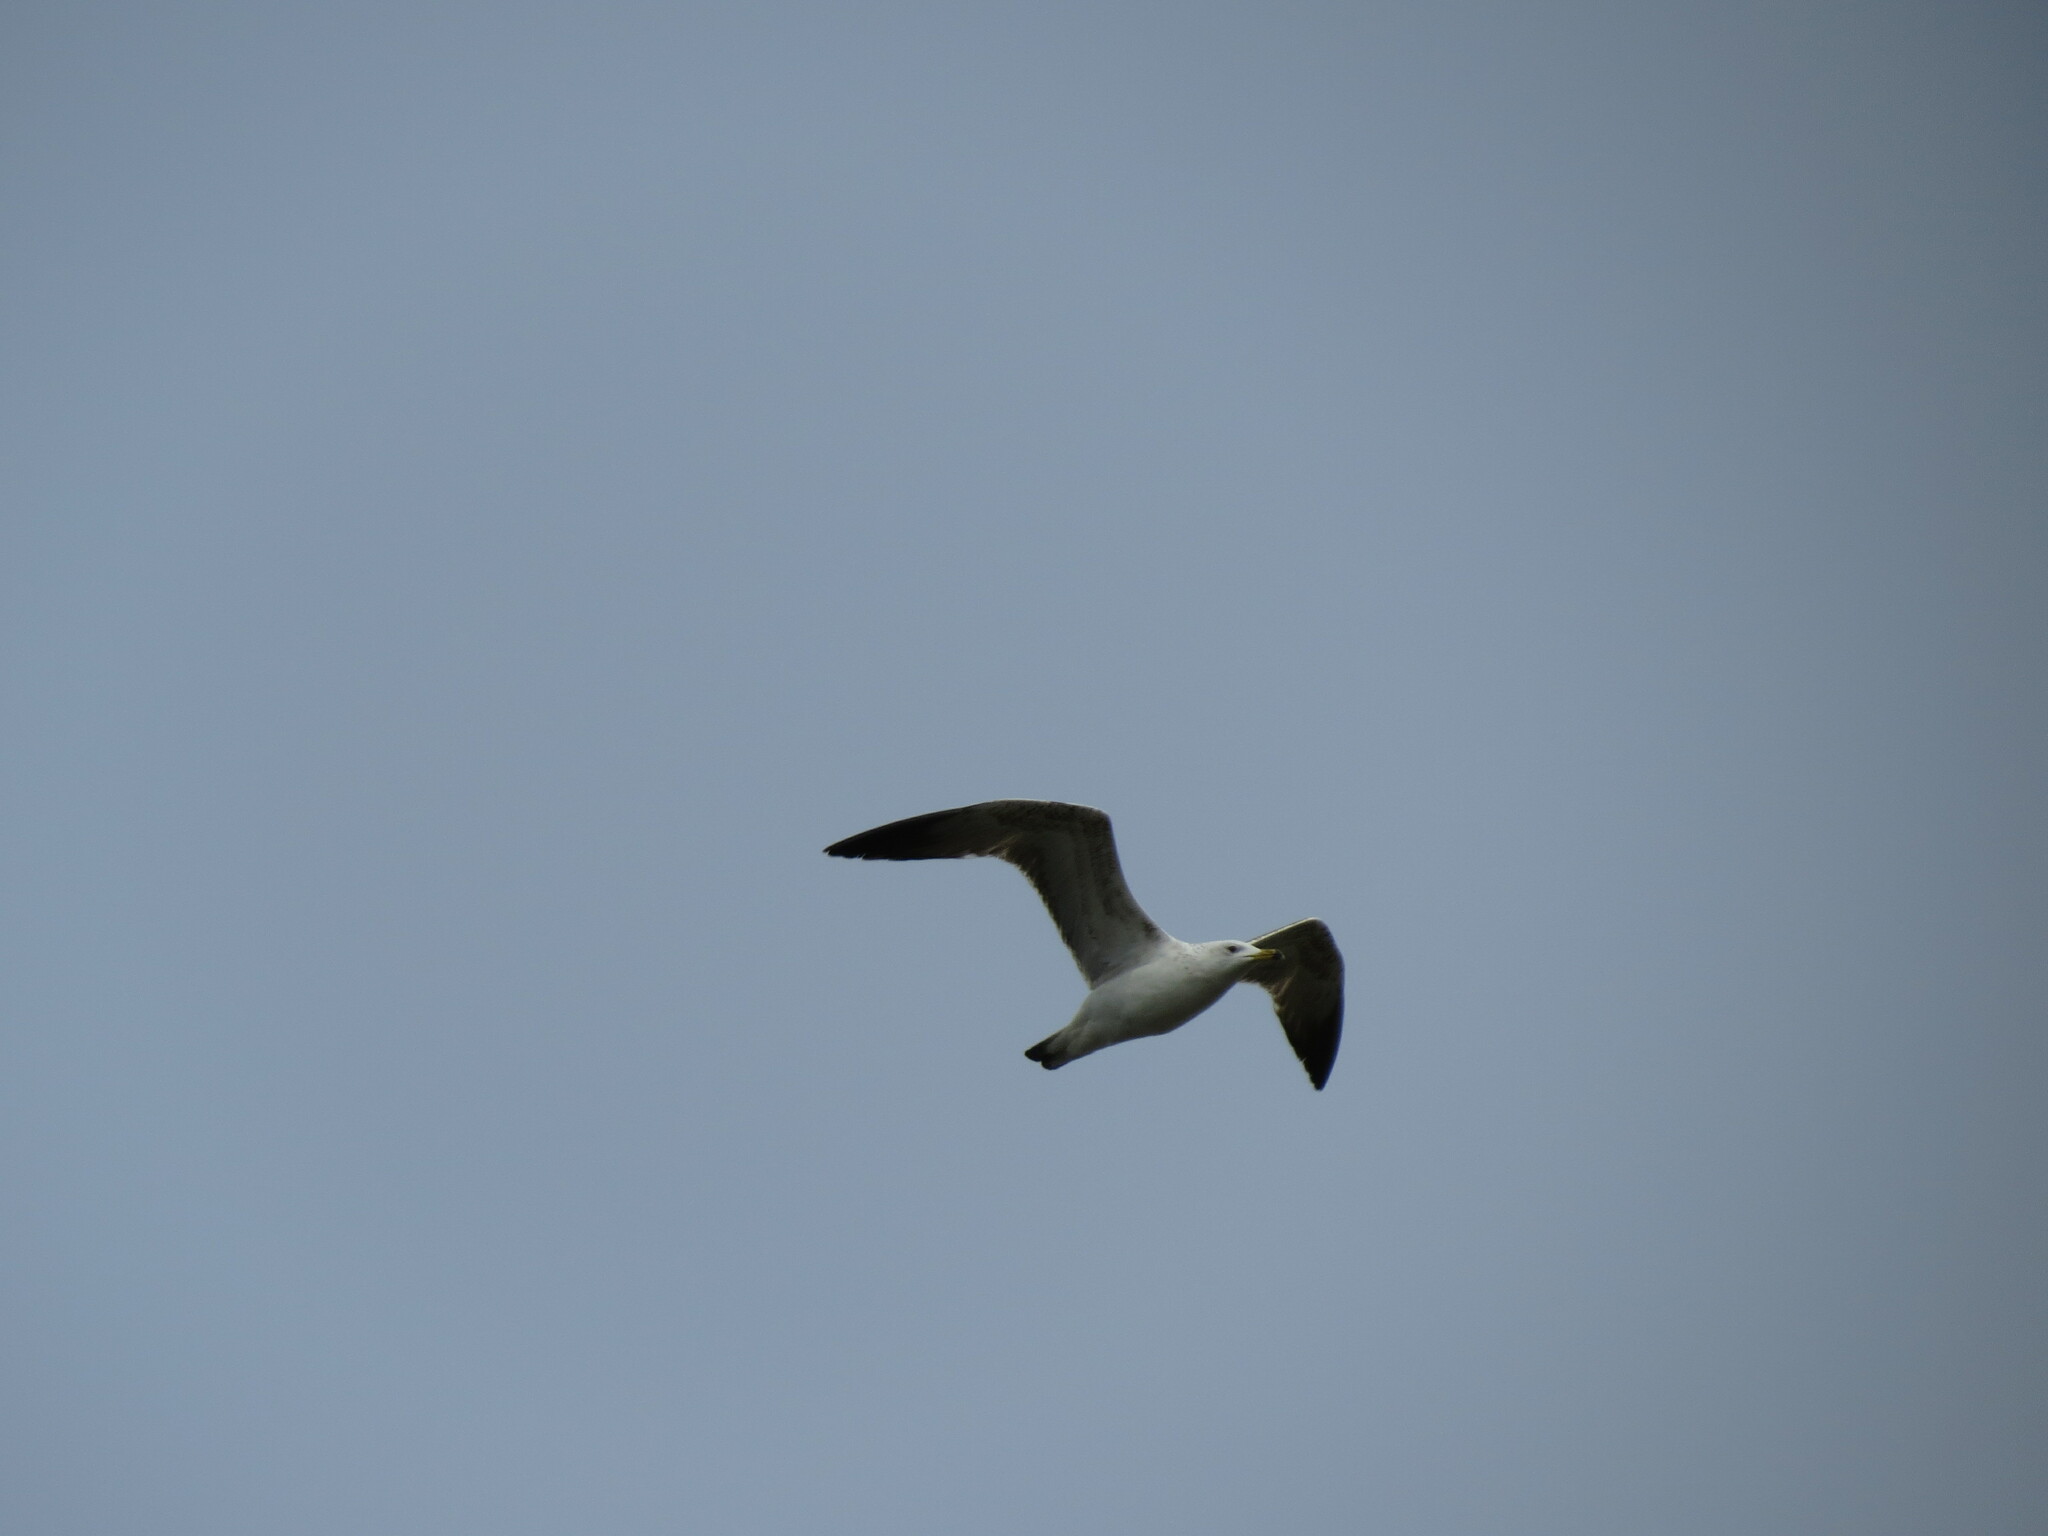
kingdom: Animalia
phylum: Chordata
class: Aves
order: Charadriiformes
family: Laridae
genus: Larus
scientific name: Larus fuscus
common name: Lesser black-backed gull
